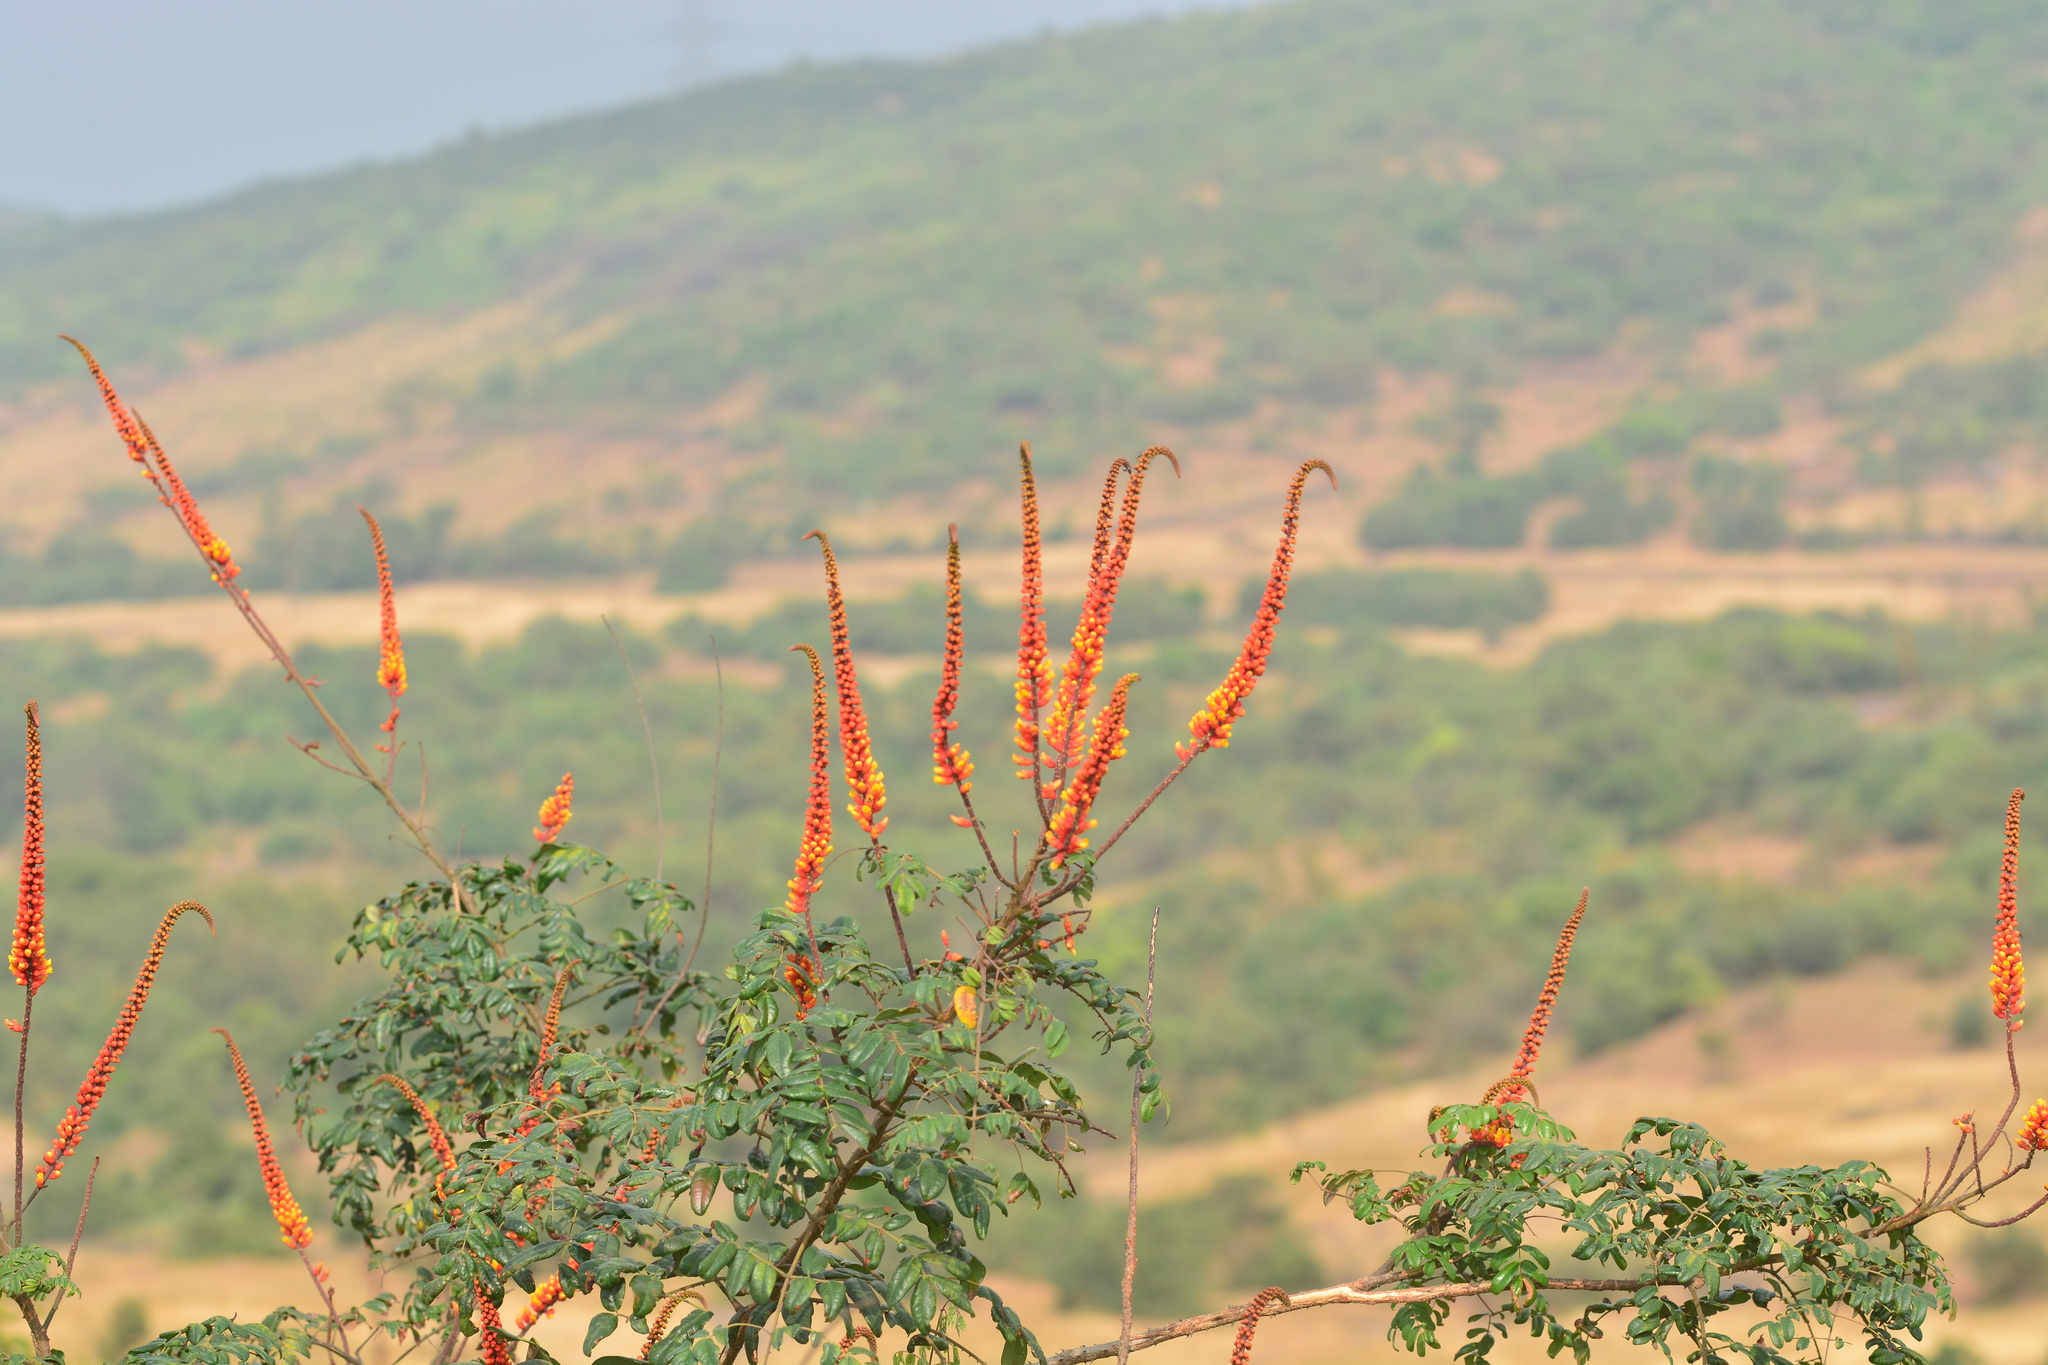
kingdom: Plantae
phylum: Tracheophyta
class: Magnoliopsida
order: Fabales
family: Fabaceae
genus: Moullava
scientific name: Moullava spicata
